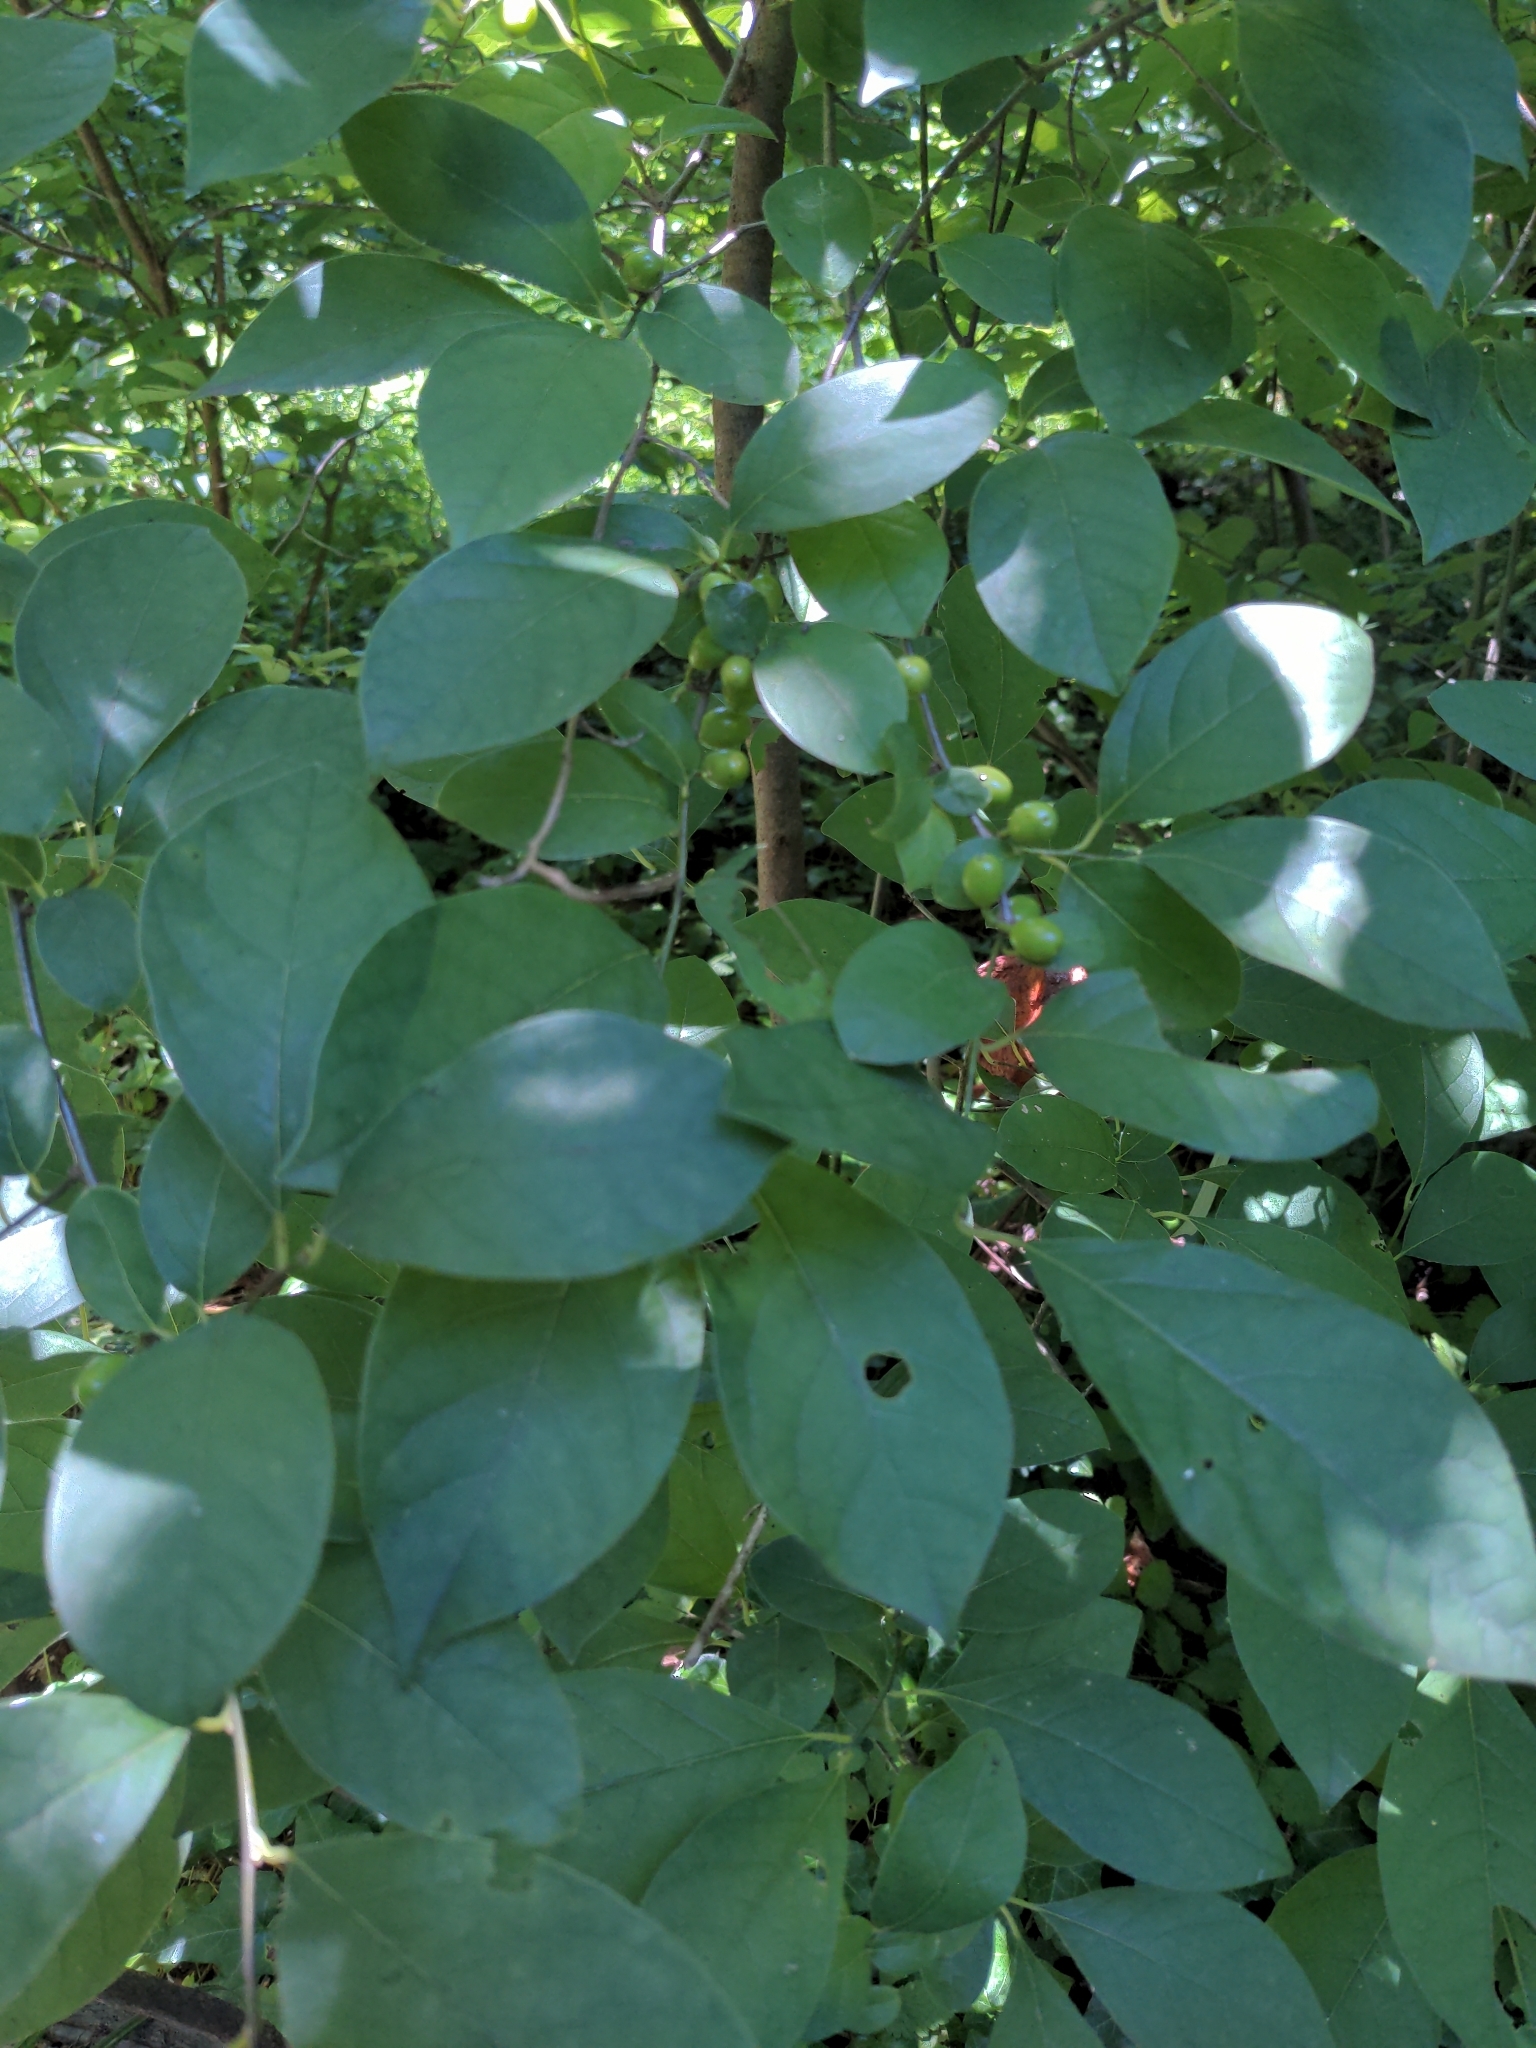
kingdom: Plantae
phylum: Tracheophyta
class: Magnoliopsida
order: Laurales
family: Lauraceae
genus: Lindera
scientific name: Lindera benzoin
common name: Spicebush
